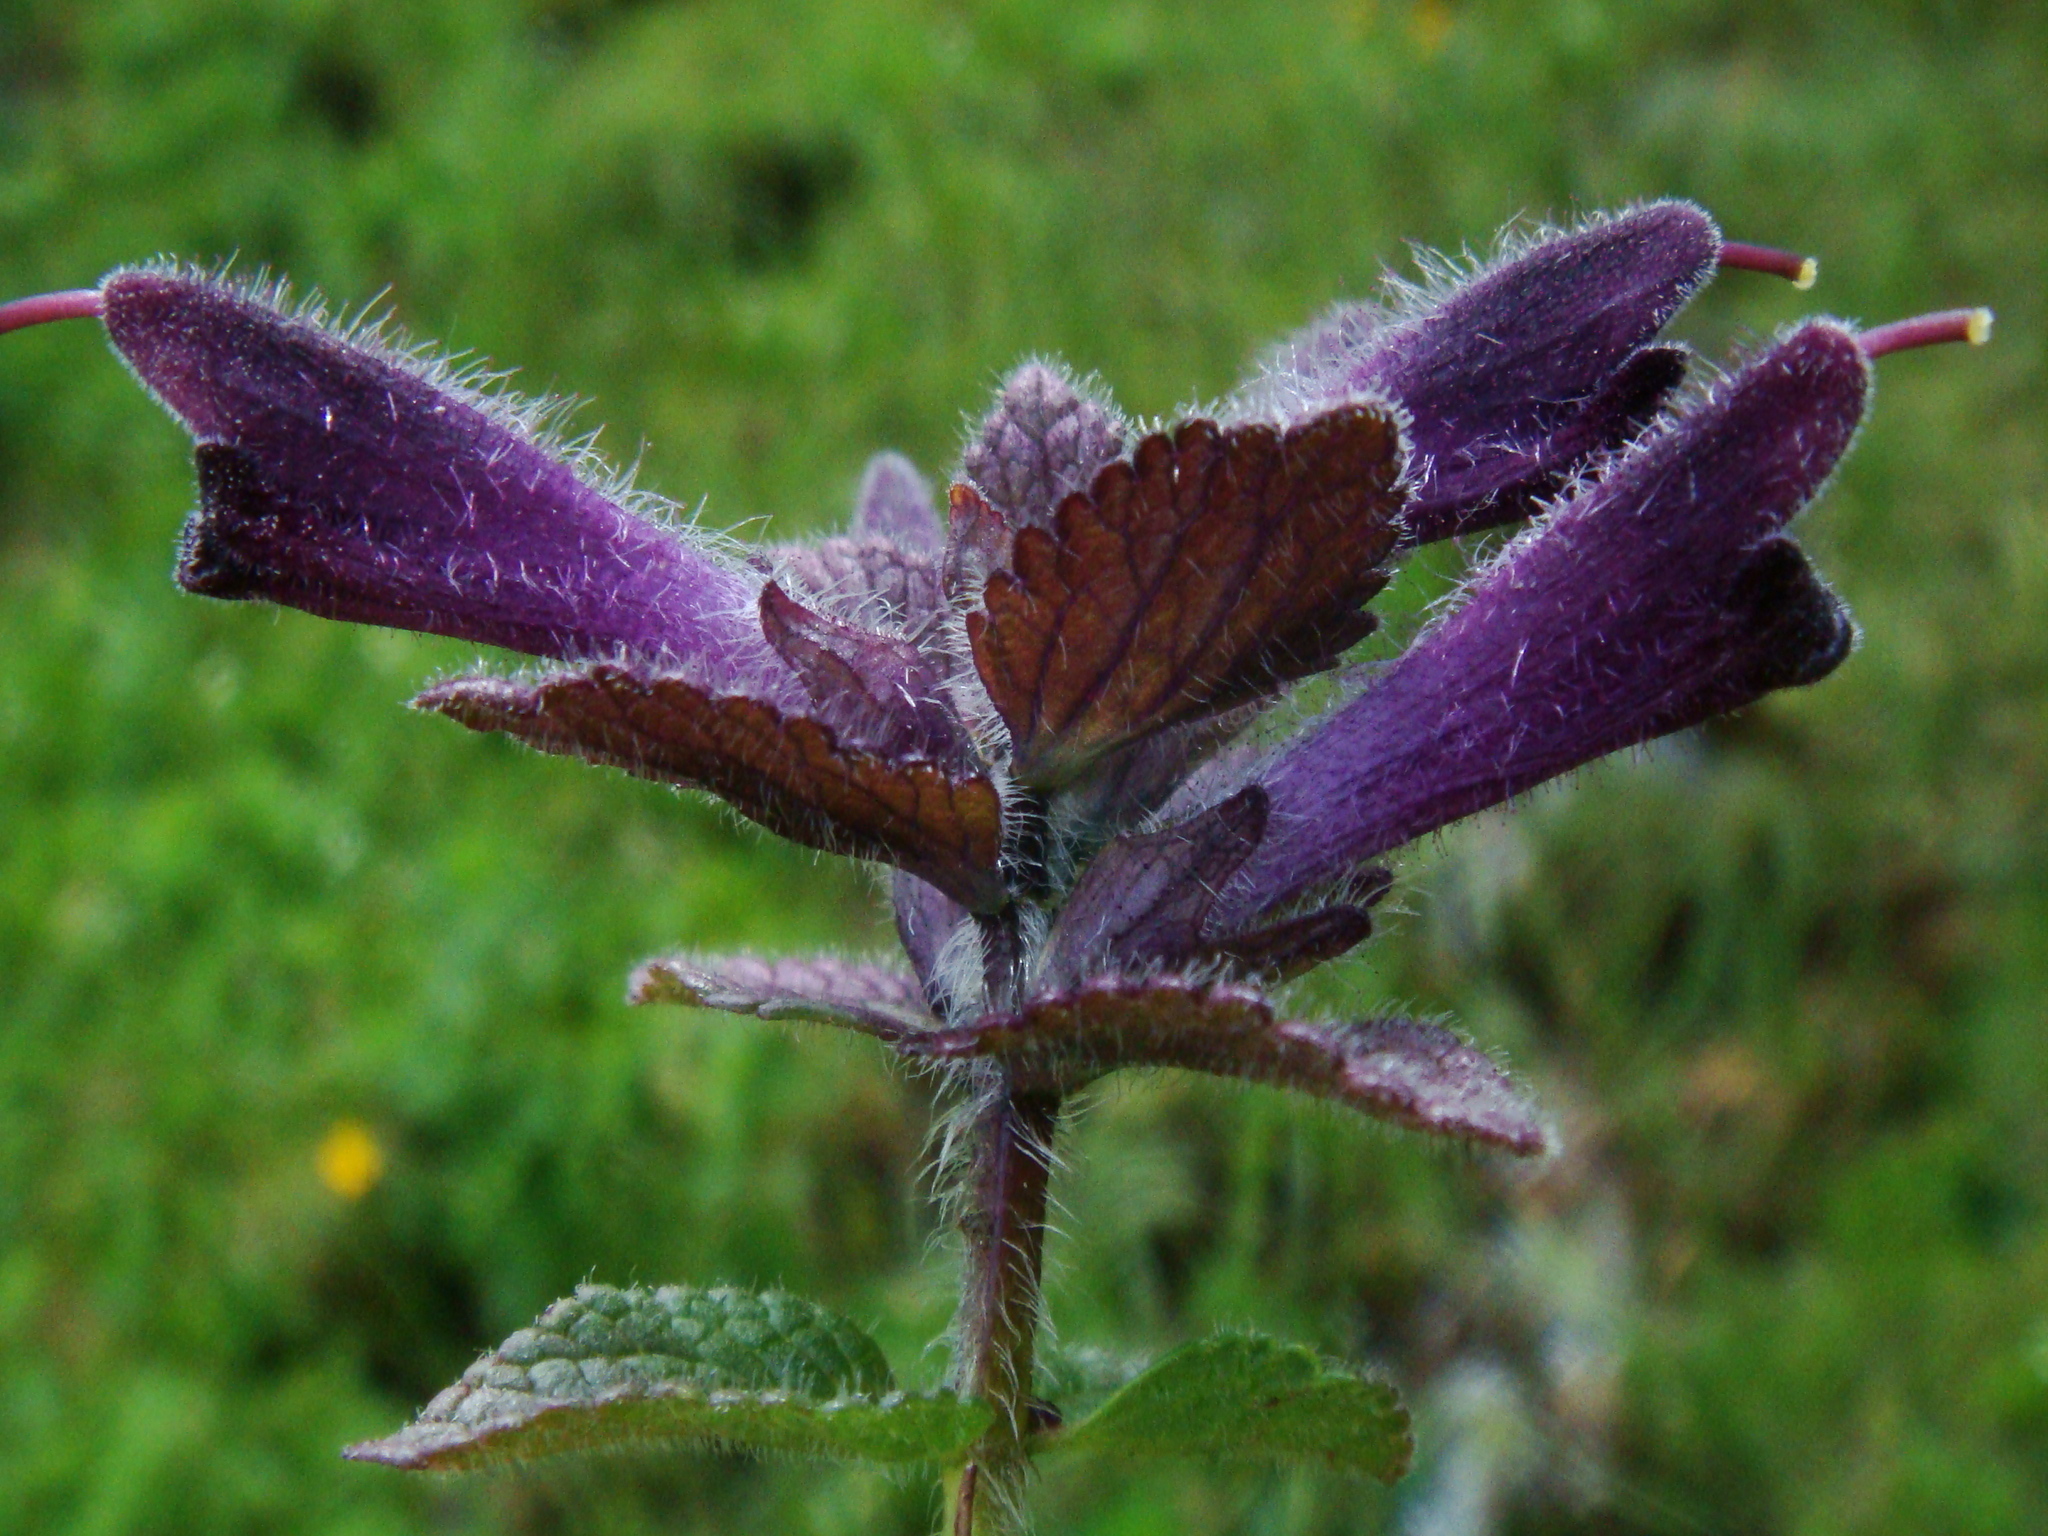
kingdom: Plantae
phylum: Tracheophyta
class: Magnoliopsida
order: Lamiales
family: Orobanchaceae
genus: Bartsia
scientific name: Bartsia alpina
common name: Alpine bartsia
